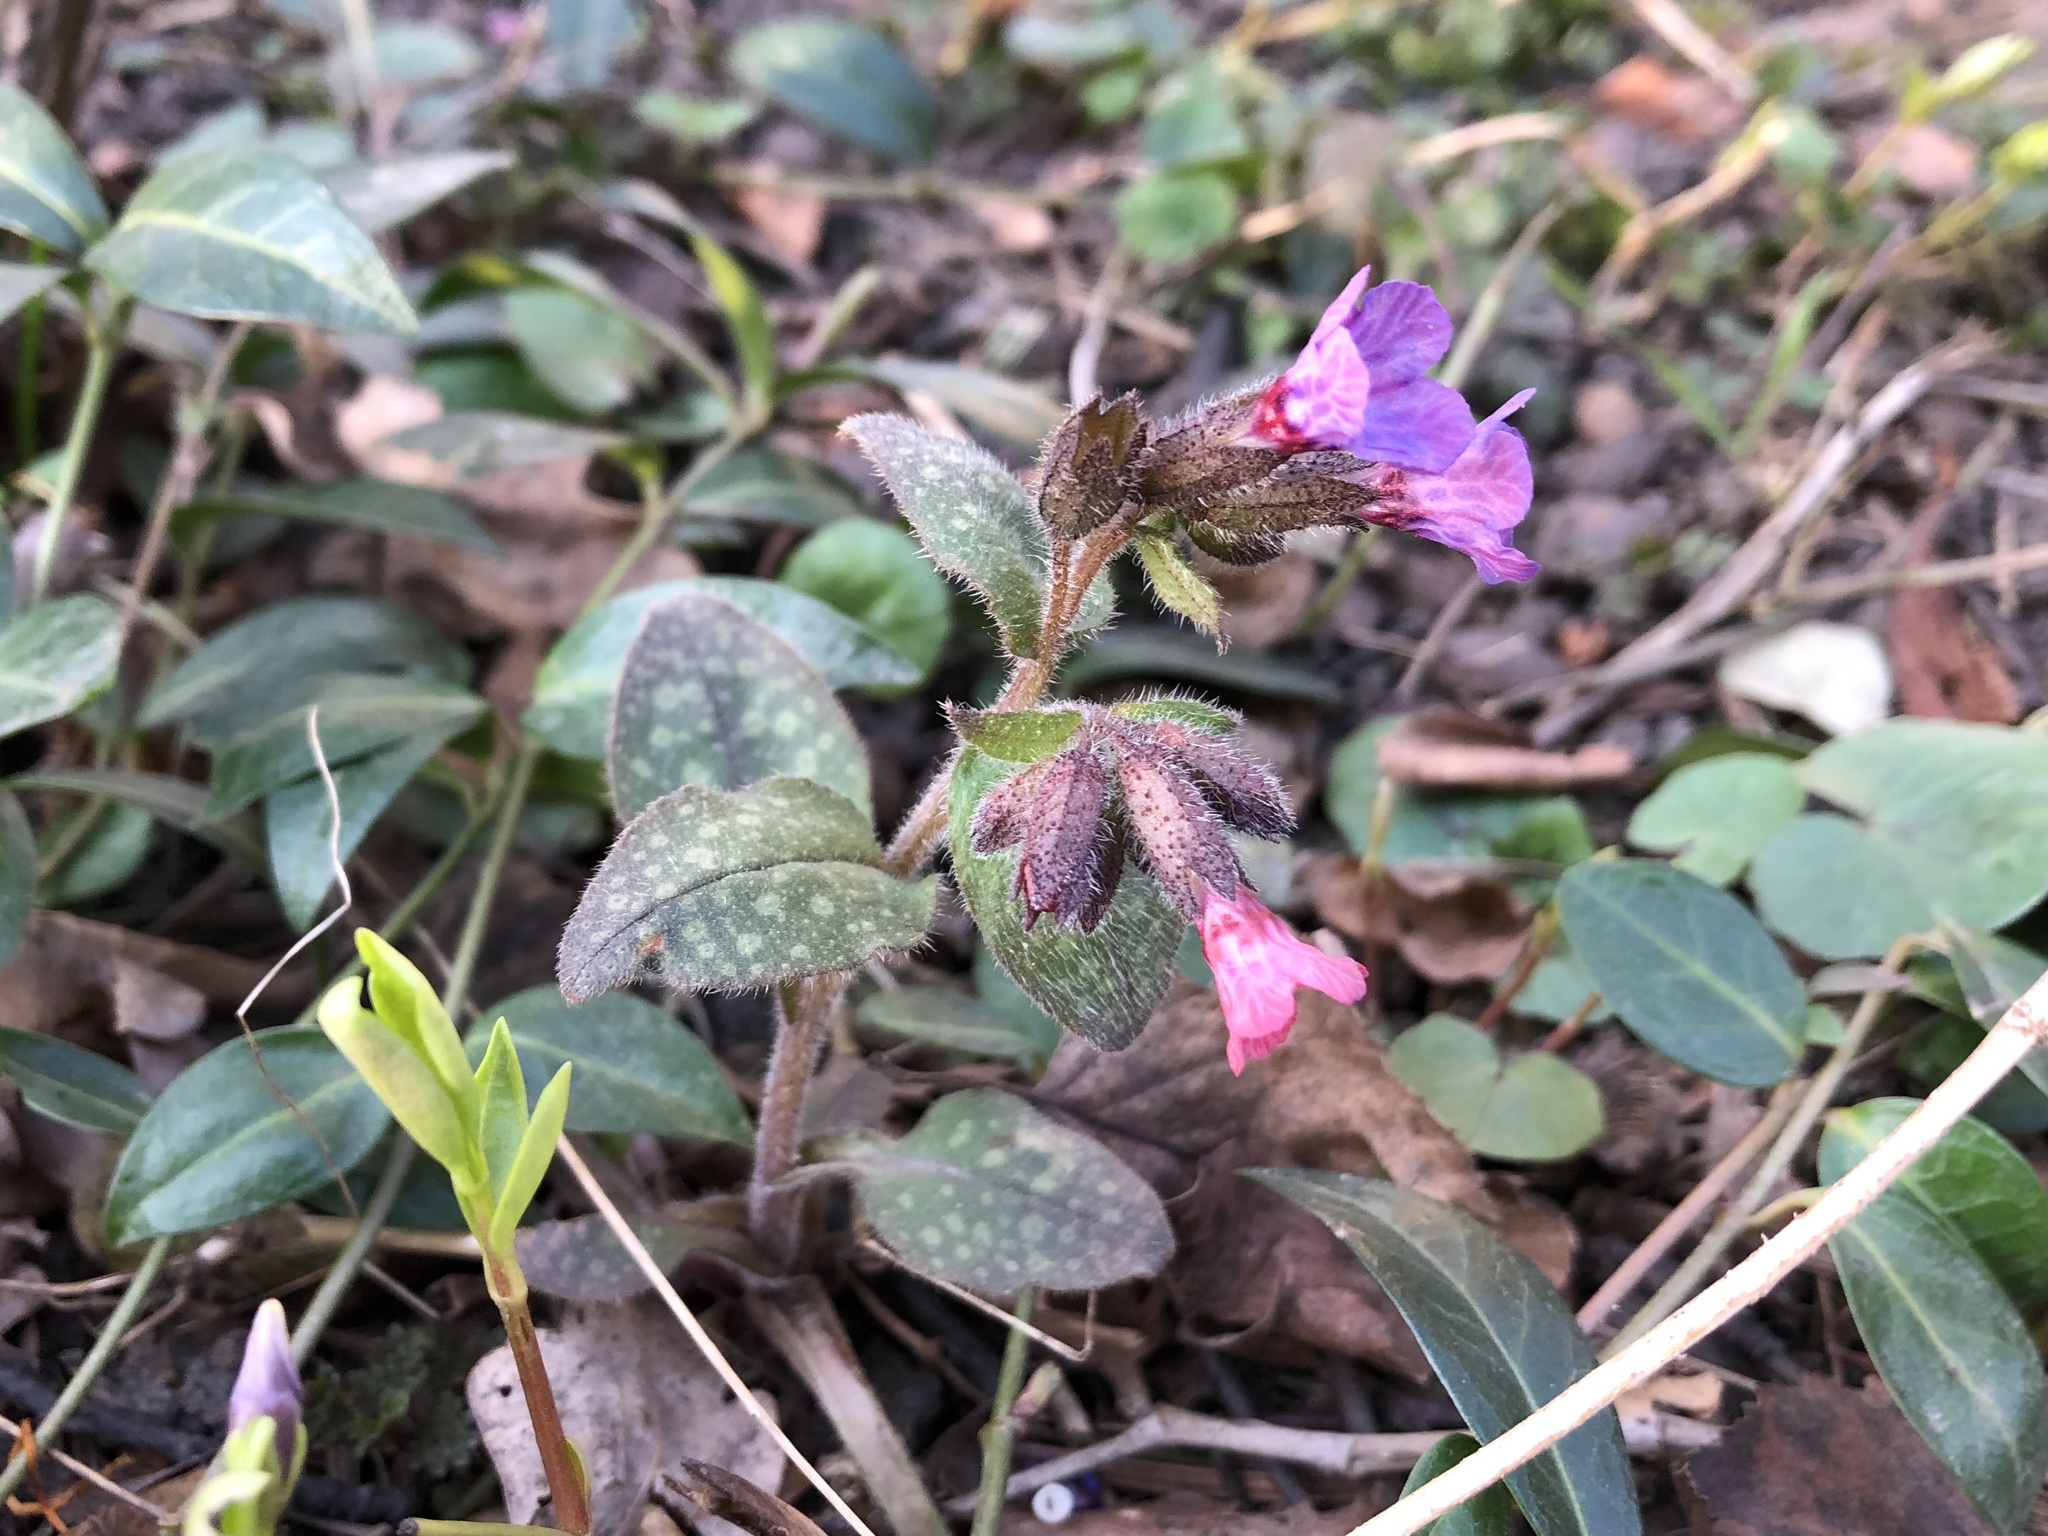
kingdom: Plantae
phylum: Tracheophyta
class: Magnoliopsida
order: Boraginales
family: Boraginaceae
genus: Pulmonaria
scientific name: Pulmonaria officinalis
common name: Lungwort
